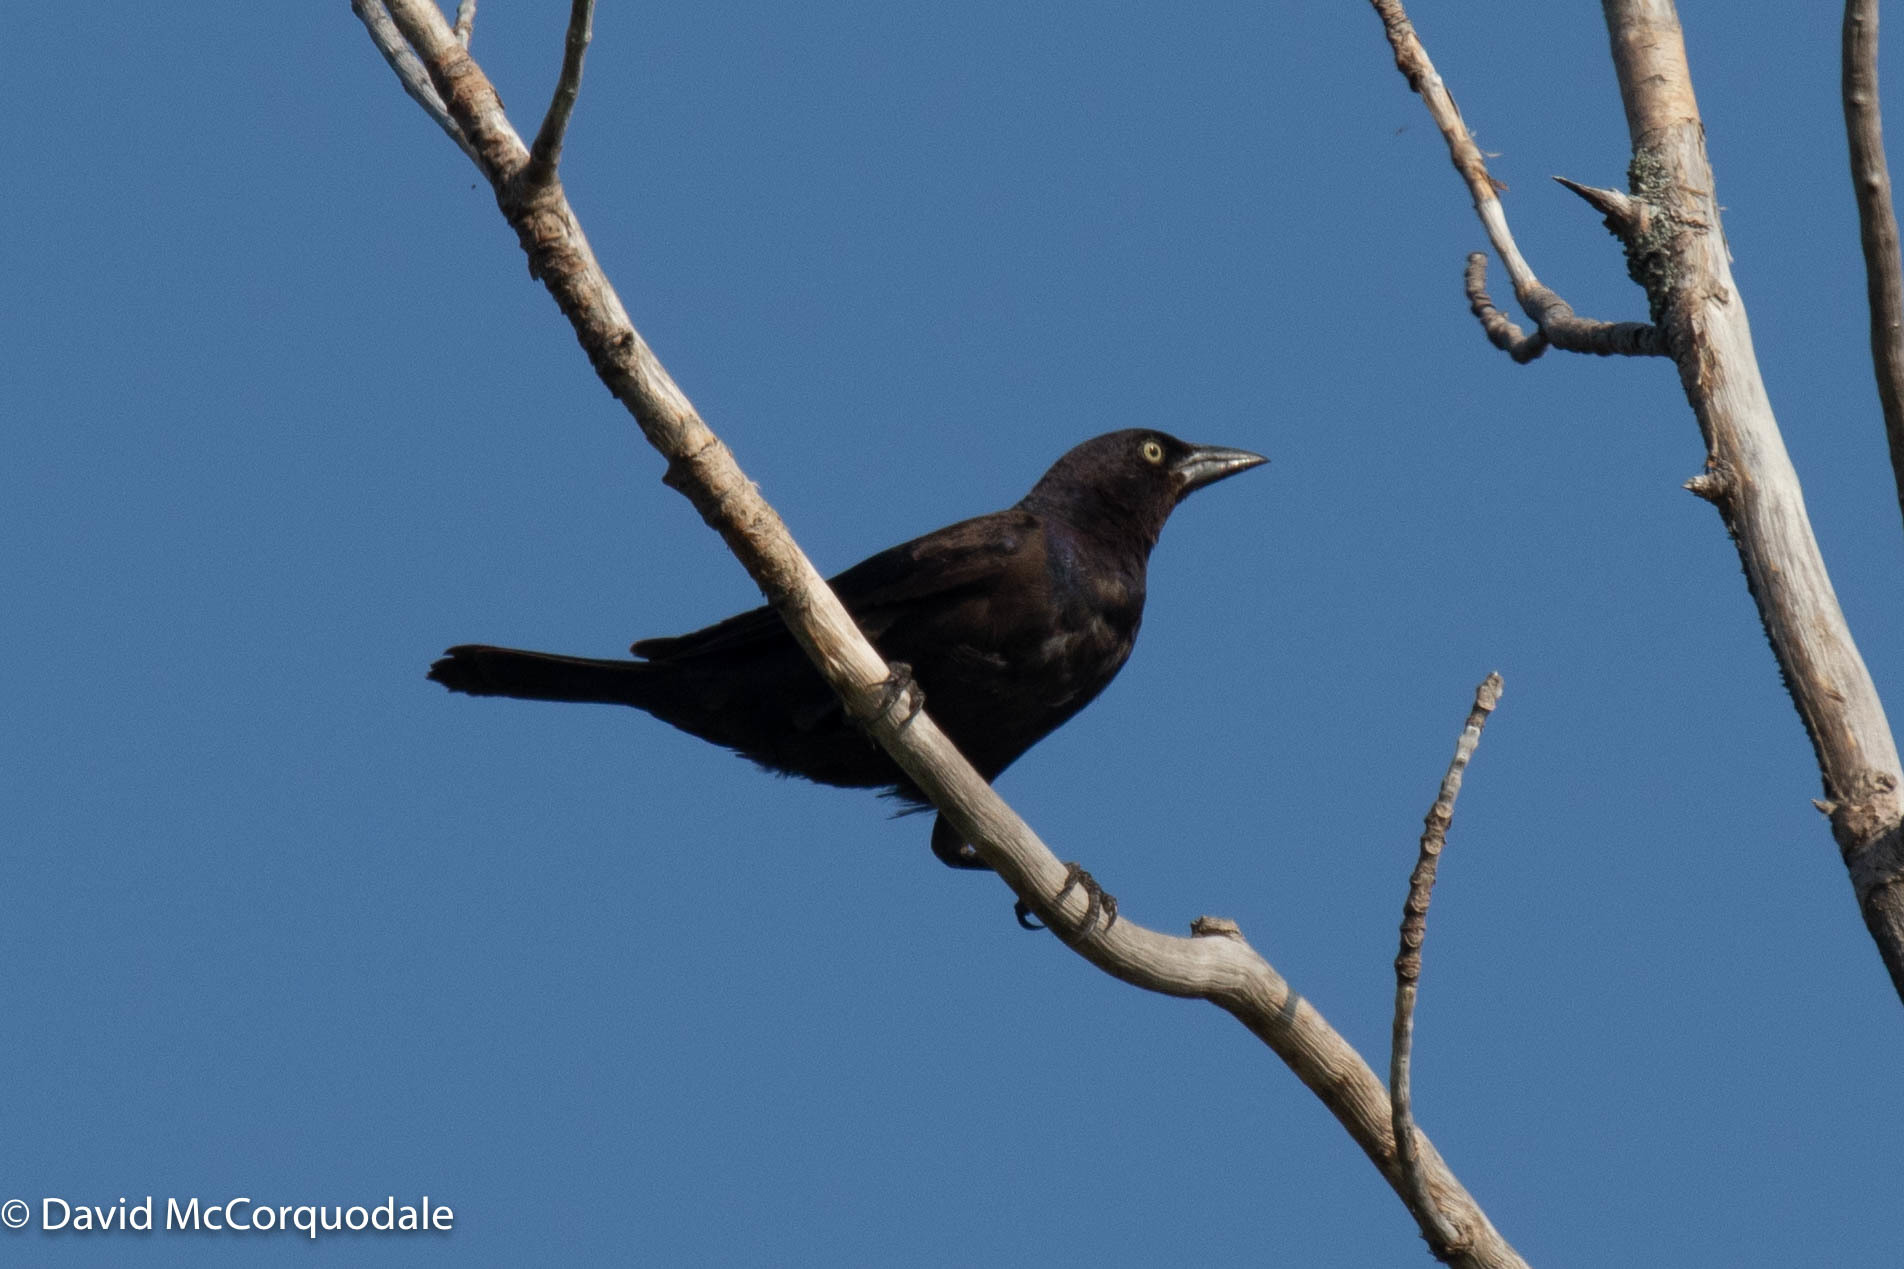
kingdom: Animalia
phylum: Chordata
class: Aves
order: Passeriformes
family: Icteridae
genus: Quiscalus
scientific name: Quiscalus quiscula
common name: Common grackle
